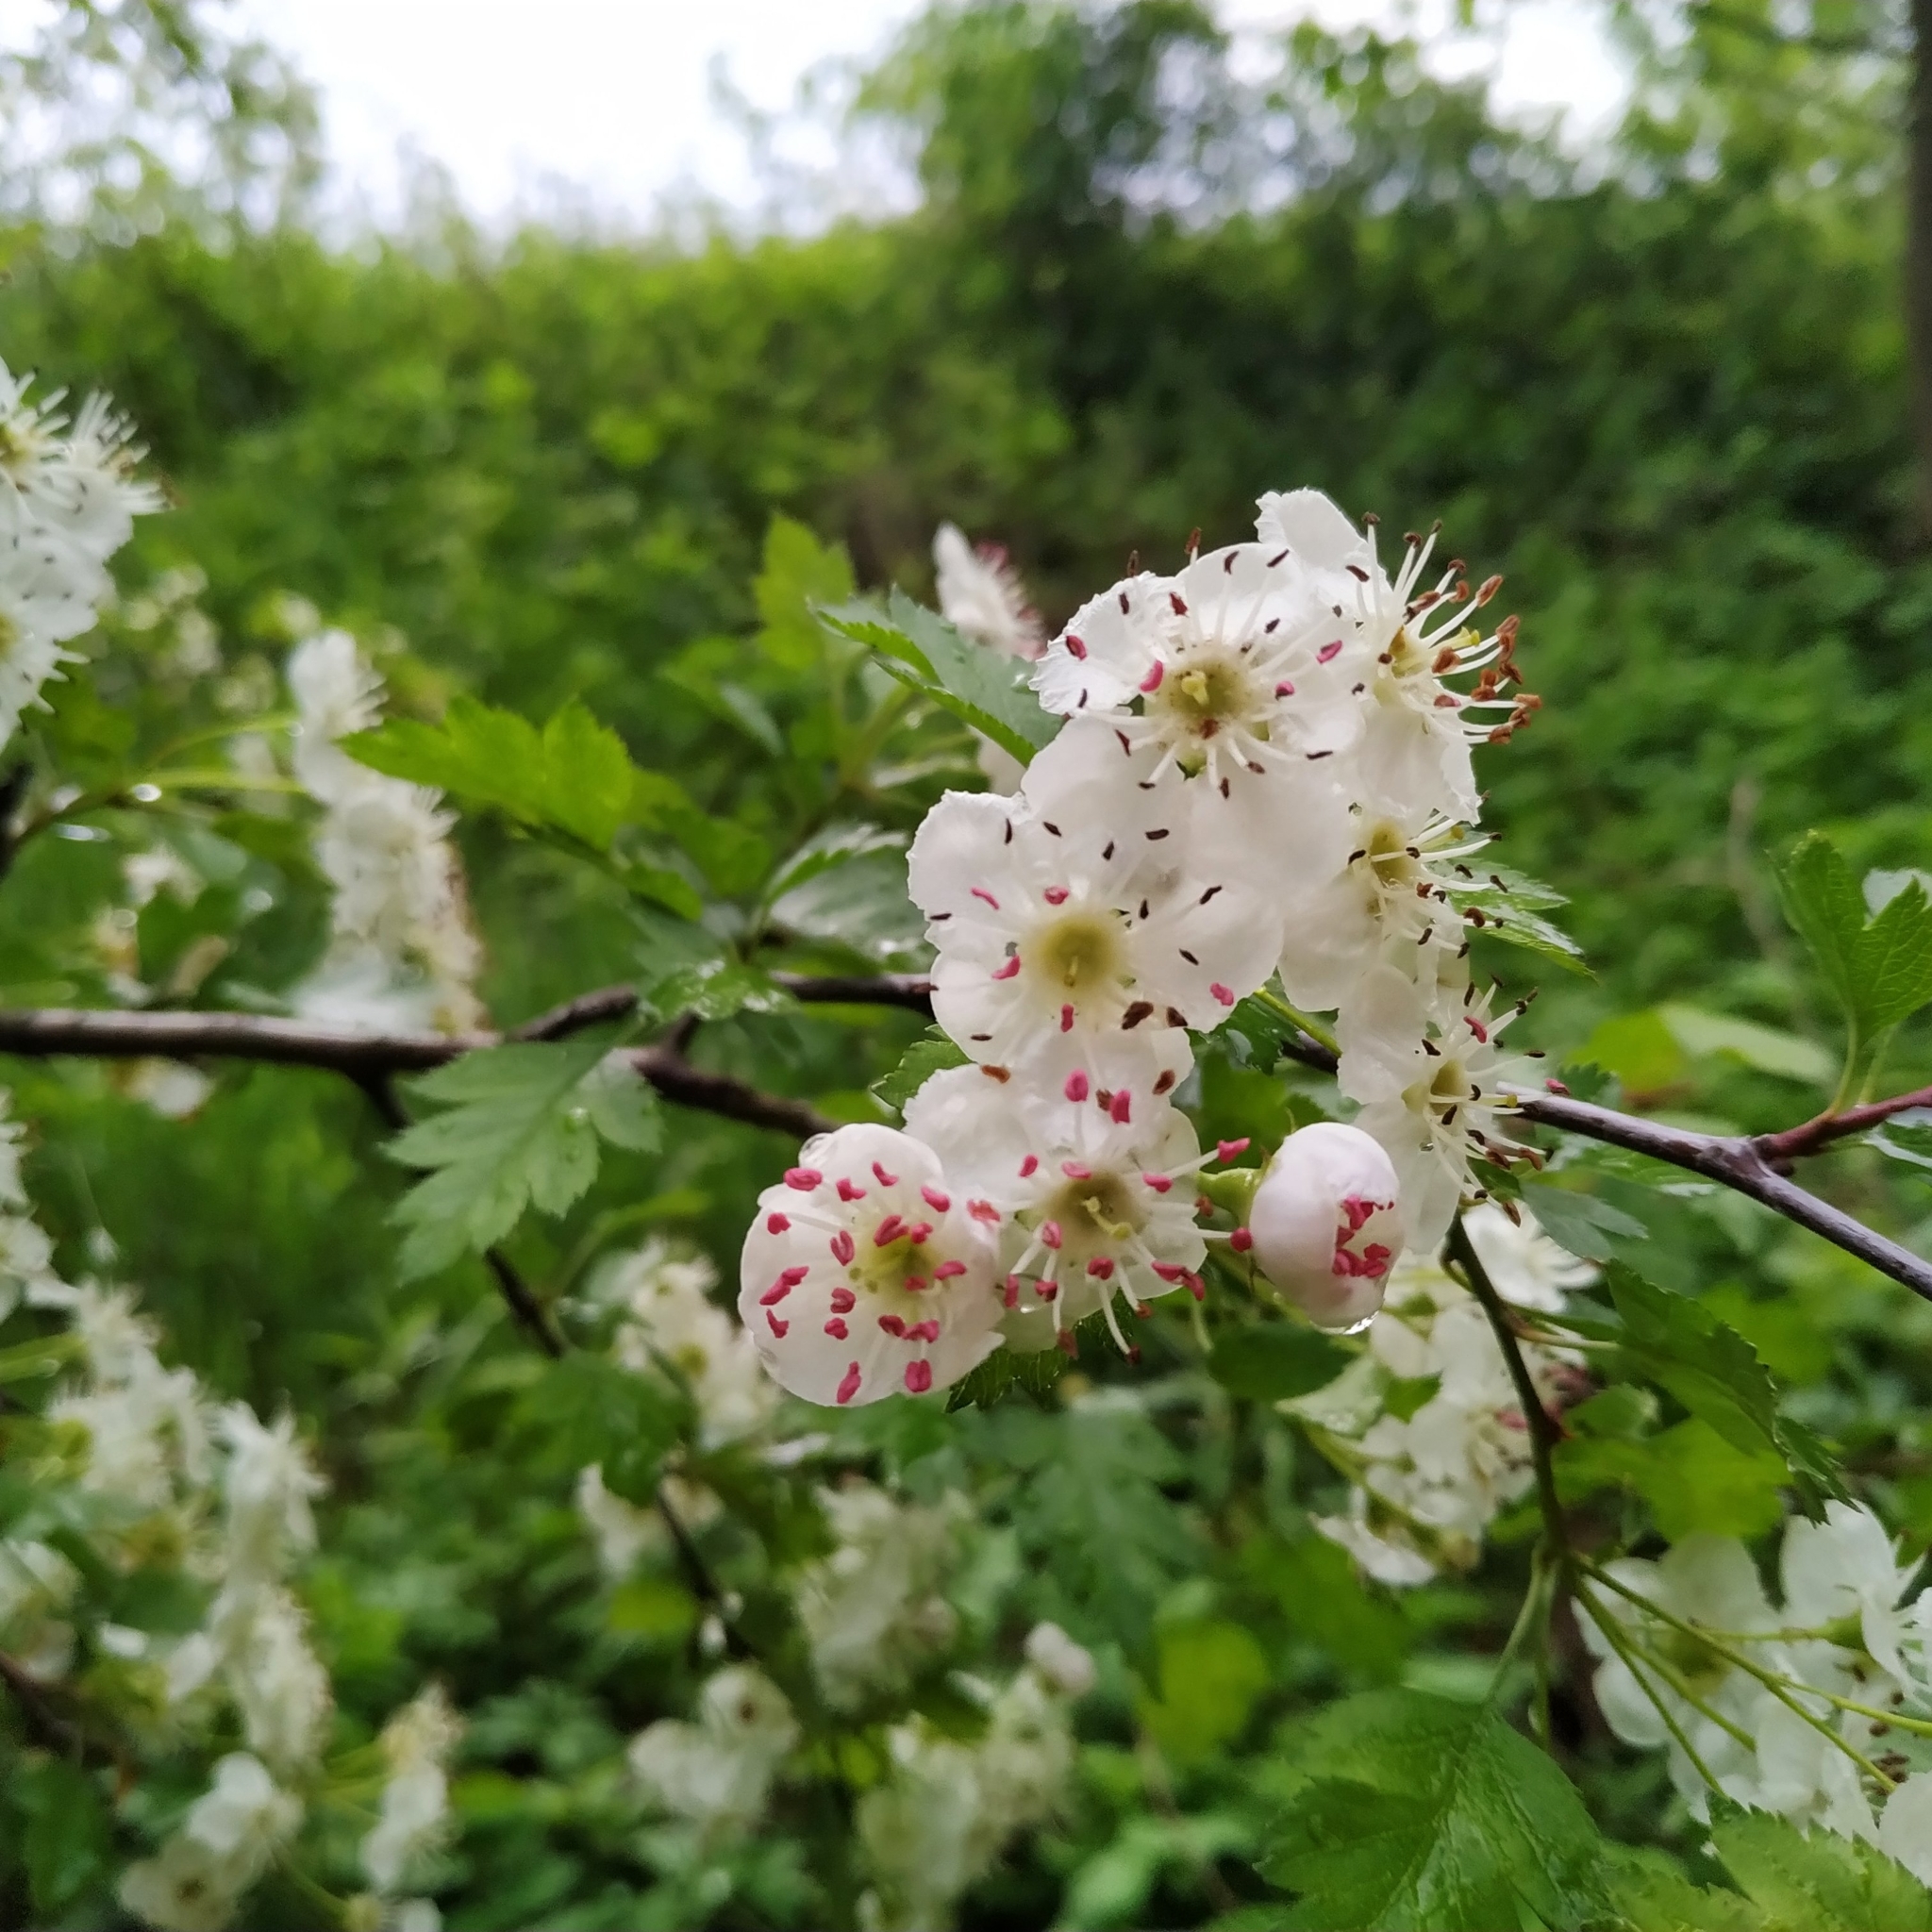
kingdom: Plantae
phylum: Tracheophyta
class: Magnoliopsida
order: Rosales
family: Rosaceae
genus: Crataegus
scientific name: Crataegus macrocarpa
